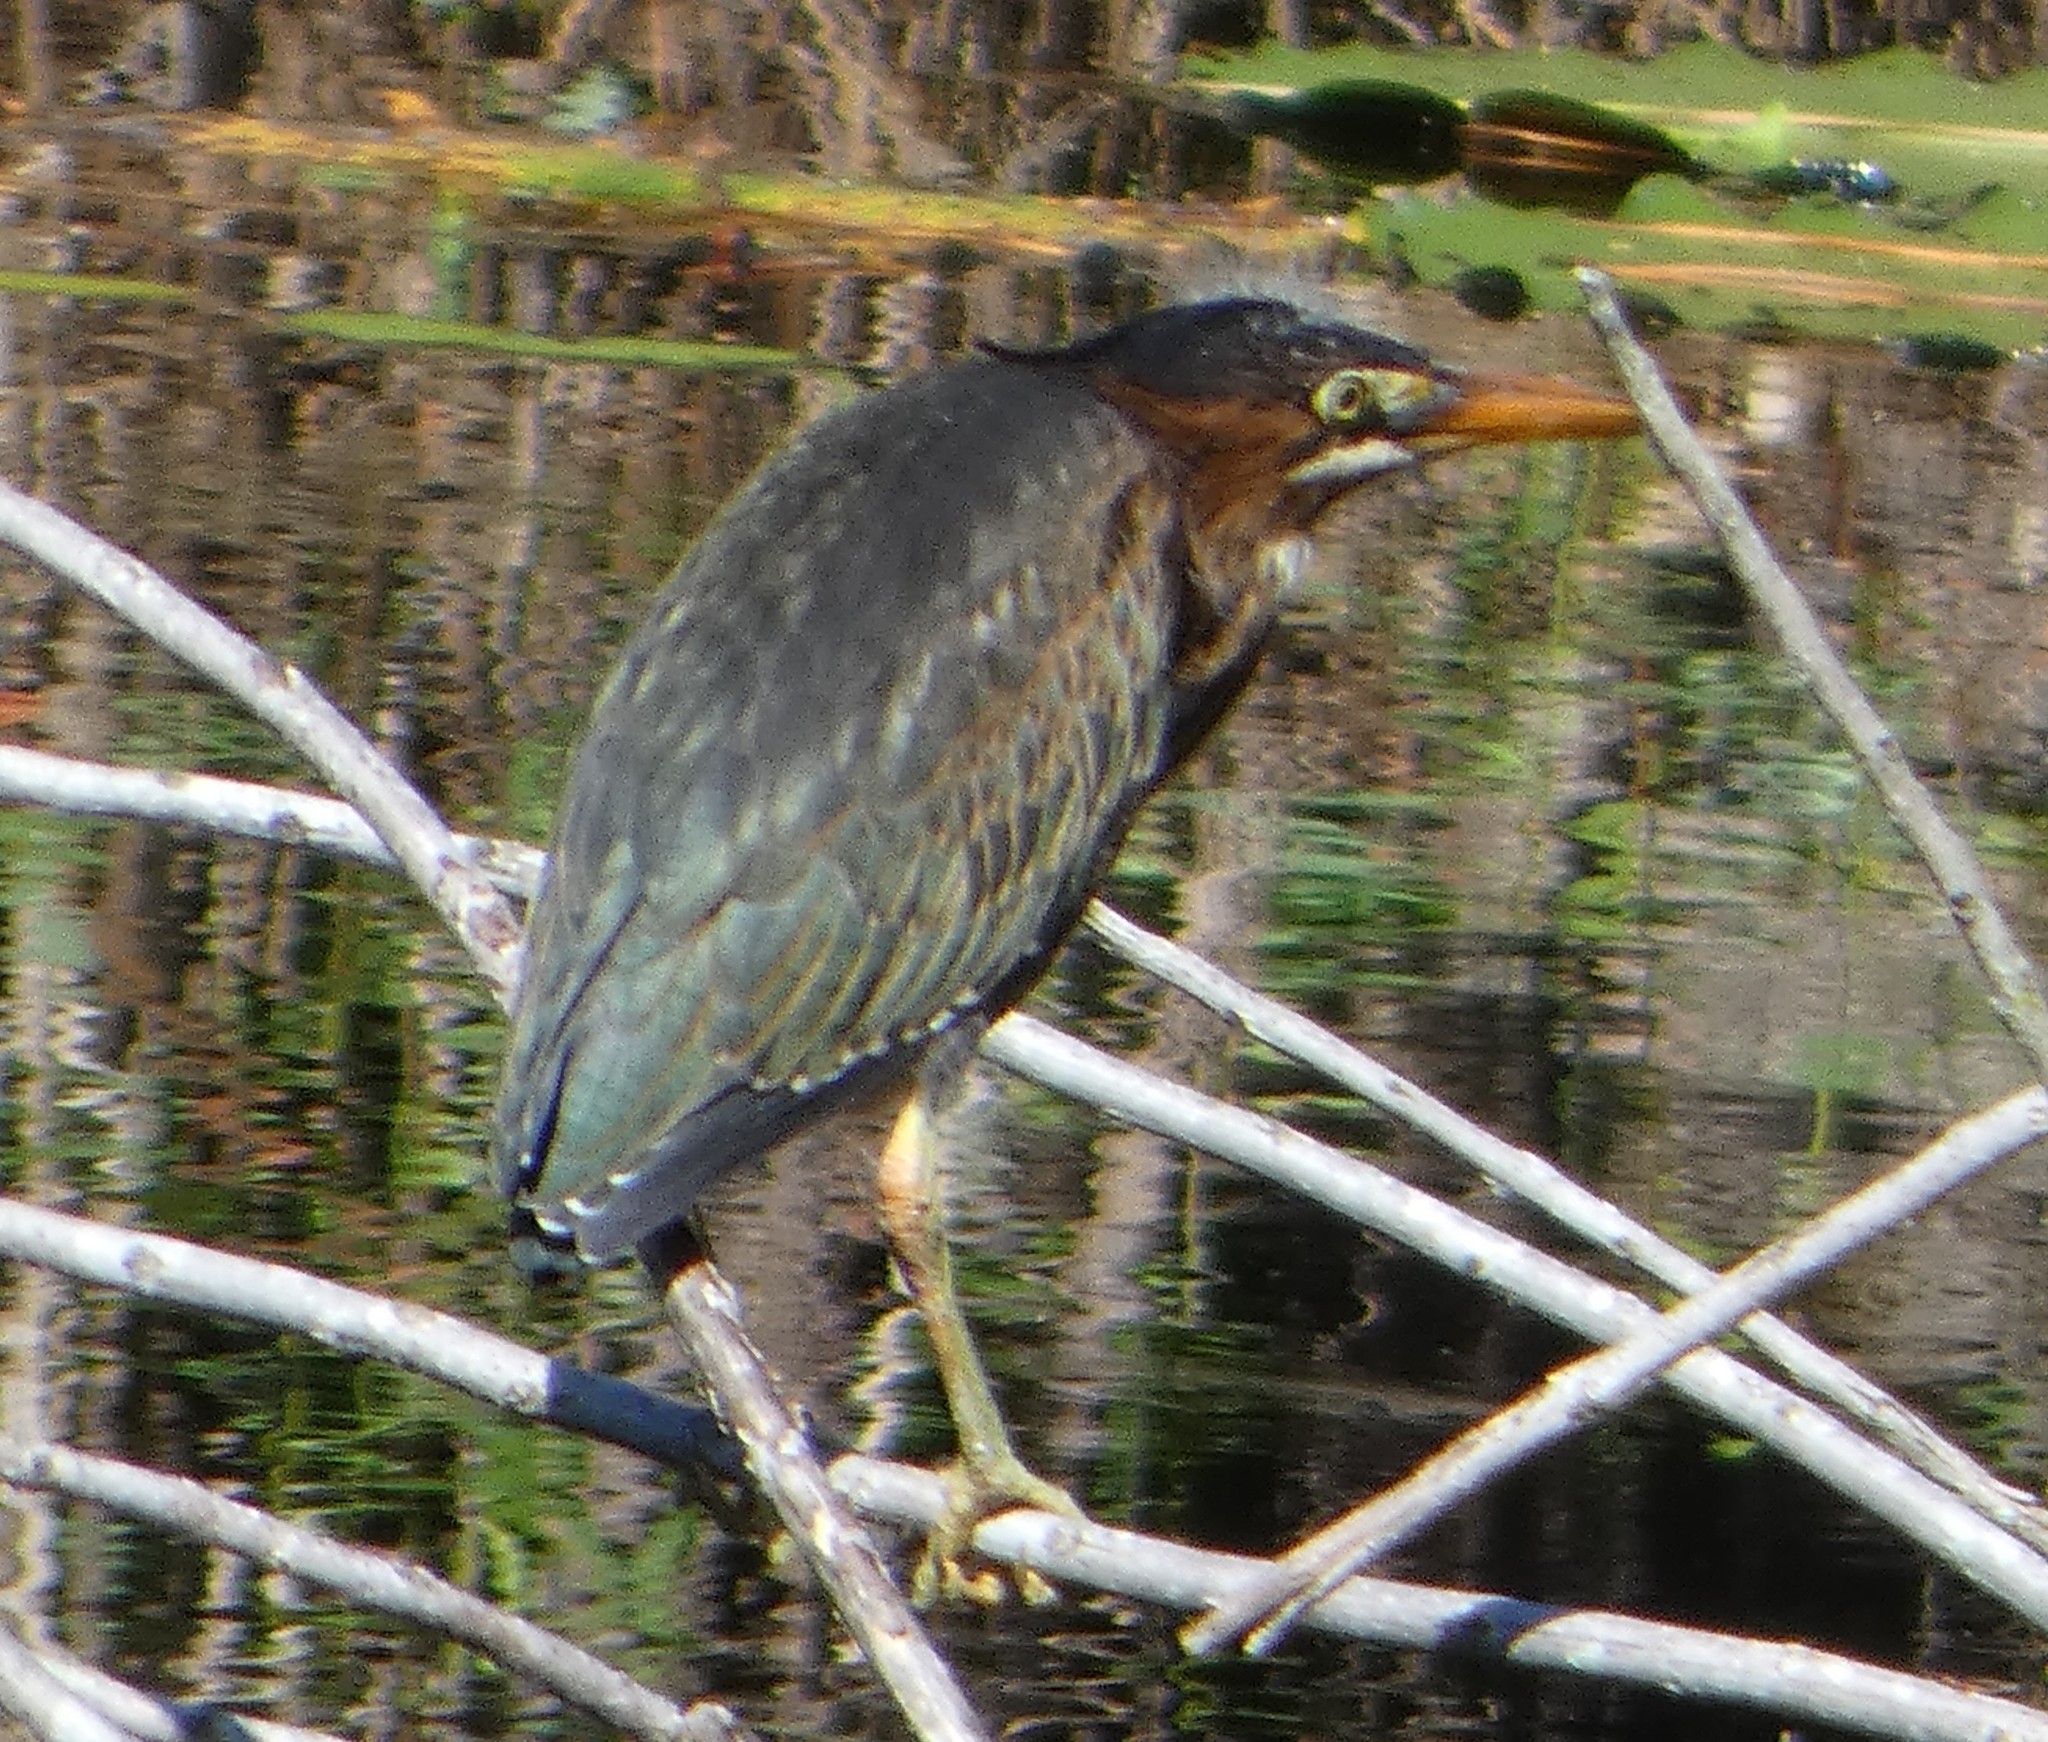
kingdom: Animalia
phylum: Chordata
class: Aves
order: Pelecaniformes
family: Ardeidae
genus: Butorides
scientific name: Butorides virescens
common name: Green heron
